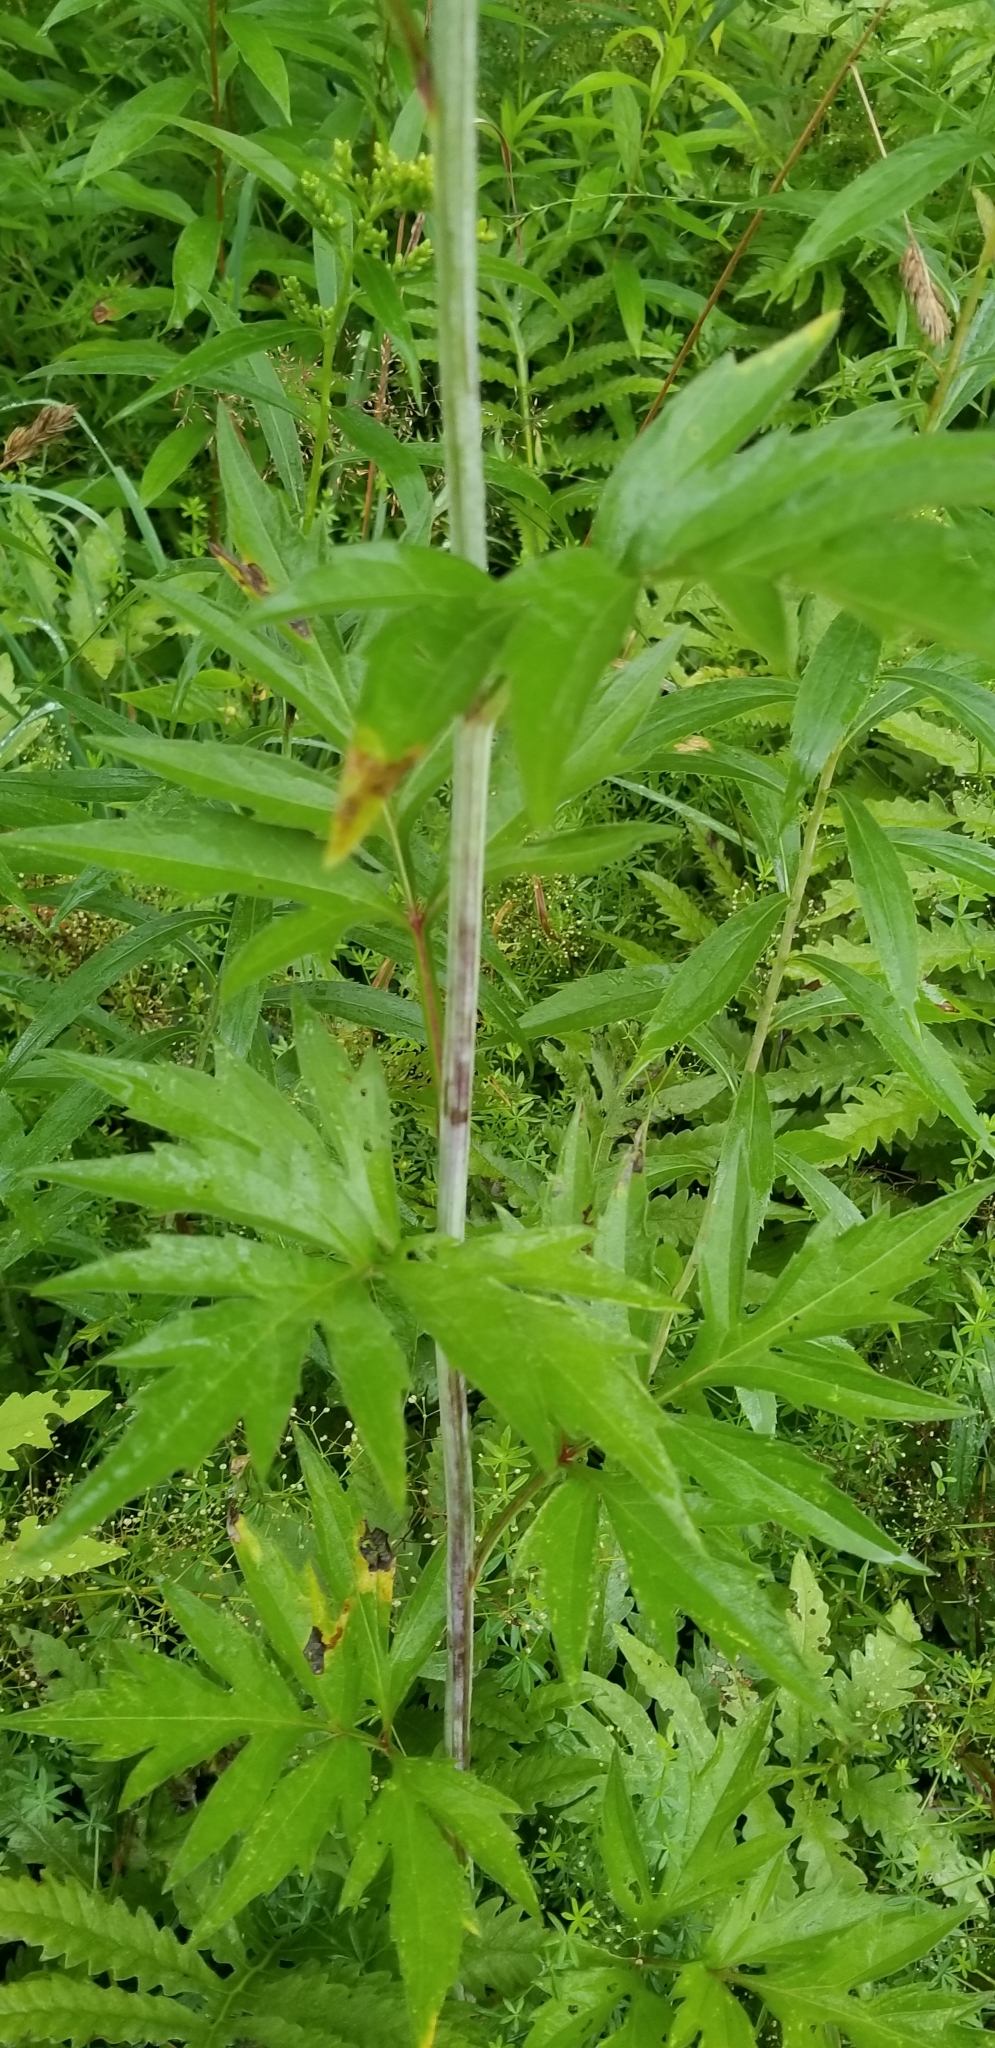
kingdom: Plantae
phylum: Tracheophyta
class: Magnoliopsida
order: Asterales
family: Asteraceae
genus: Rudbeckia
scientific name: Rudbeckia laciniata
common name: Coneflower
